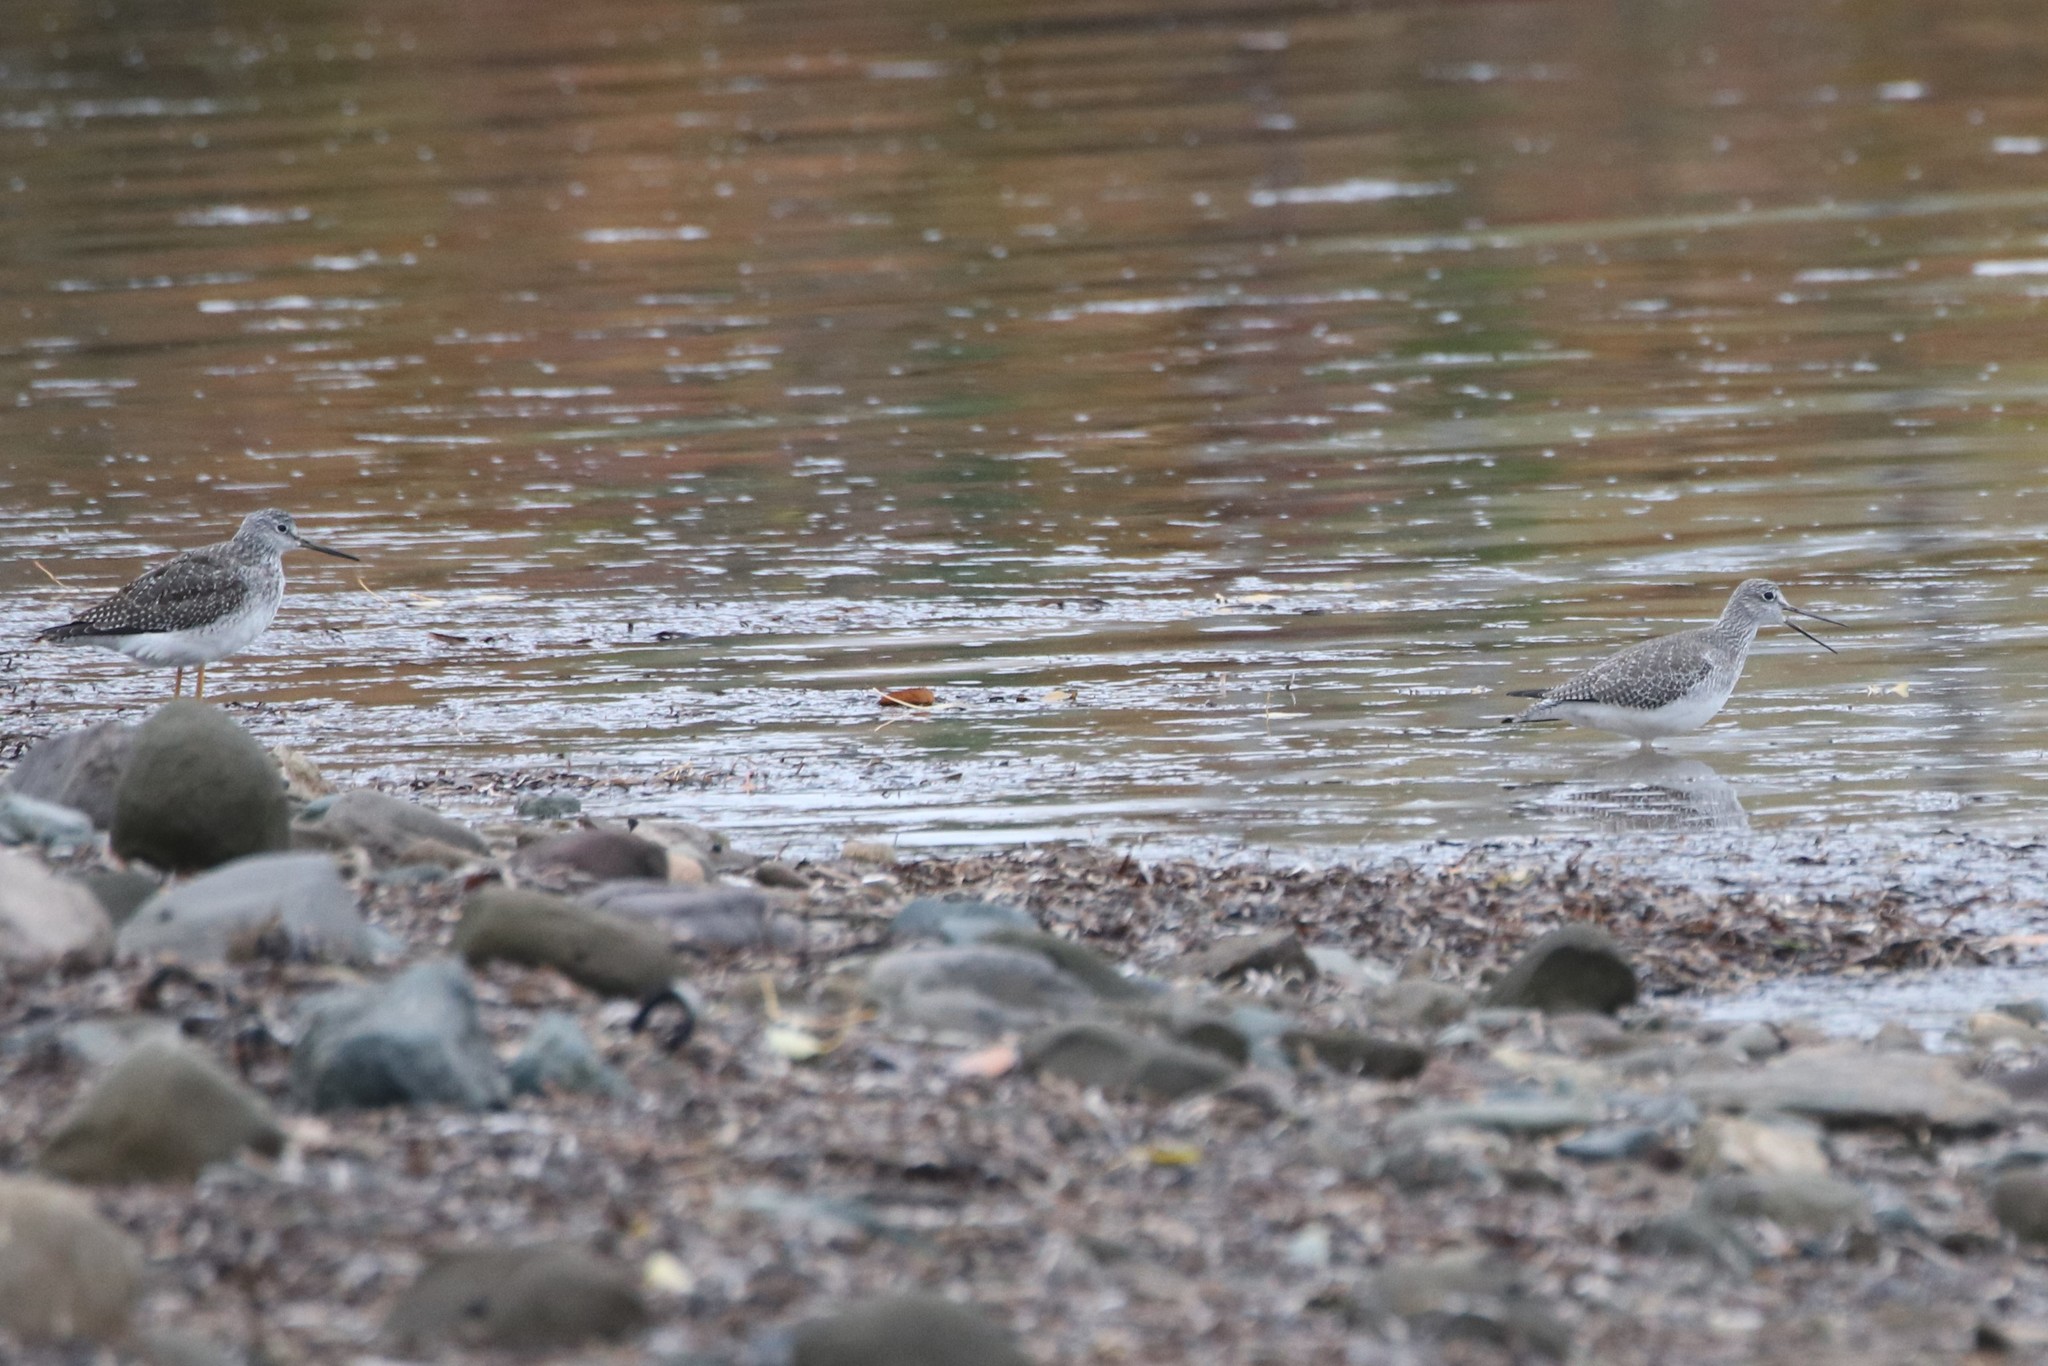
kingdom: Animalia
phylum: Chordata
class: Aves
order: Charadriiformes
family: Scolopacidae
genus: Tringa
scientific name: Tringa melanoleuca
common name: Greater yellowlegs
